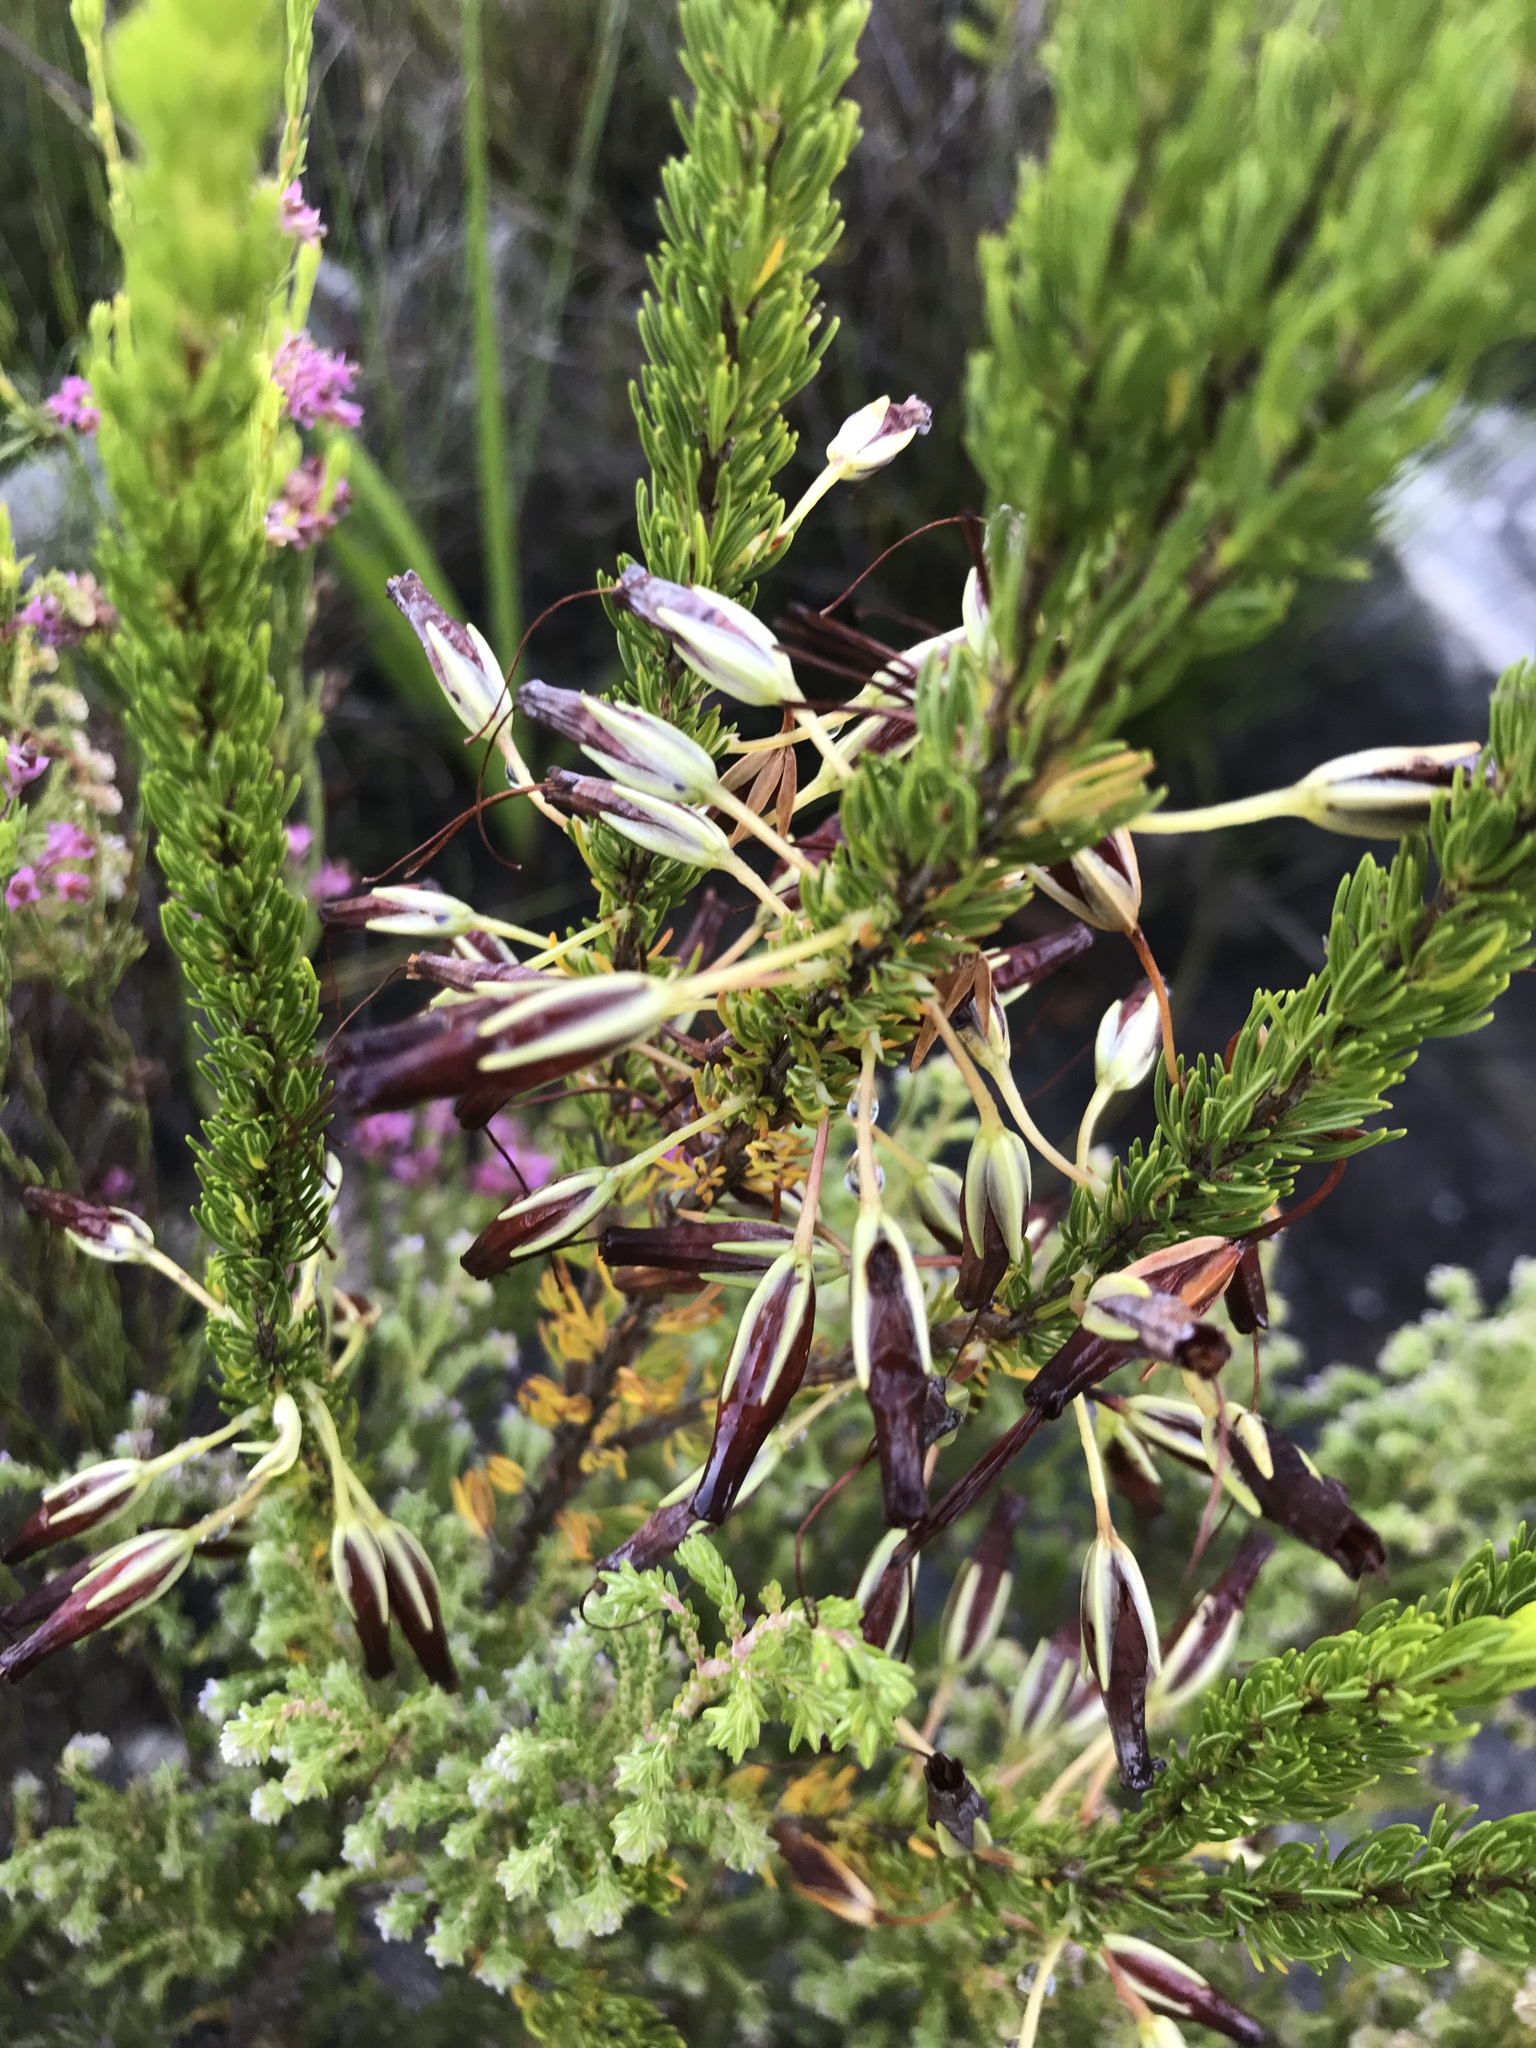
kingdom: Plantae
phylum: Tracheophyta
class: Magnoliopsida
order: Ericales
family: Ericaceae
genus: Erica
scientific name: Erica plukenetii
